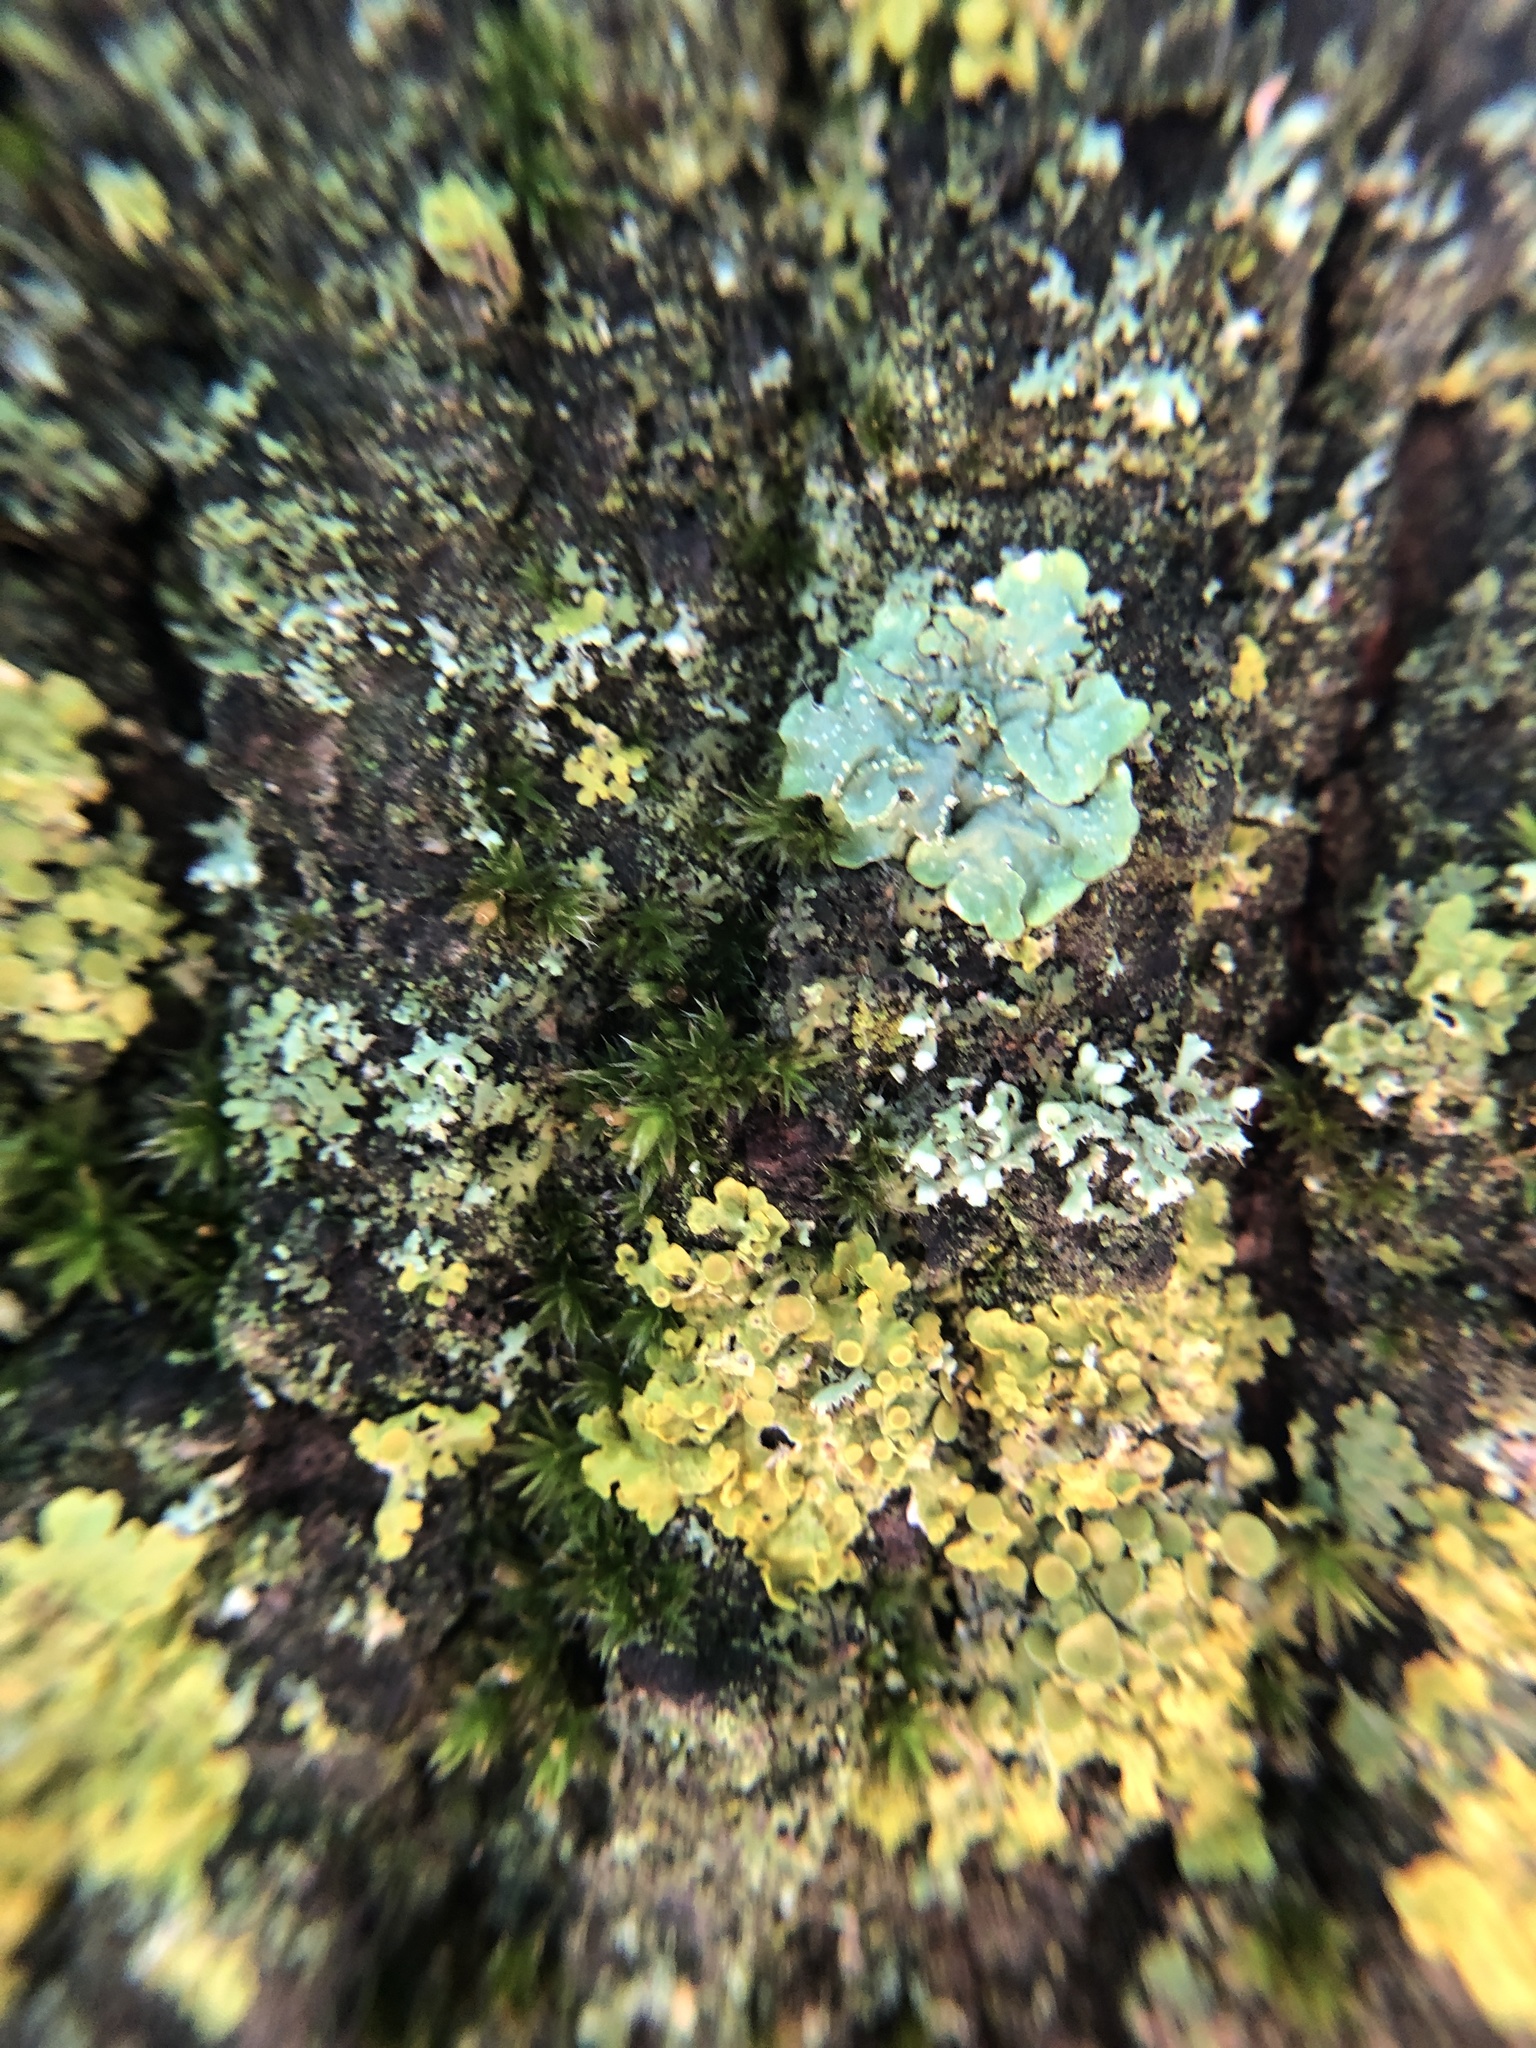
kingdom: Plantae
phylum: Bryophyta
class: Bryopsida
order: Orthotrichales
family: Orthotrichaceae
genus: Orthotrichum
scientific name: Orthotrichum diaphanum
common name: White-tipped bristle-moss
